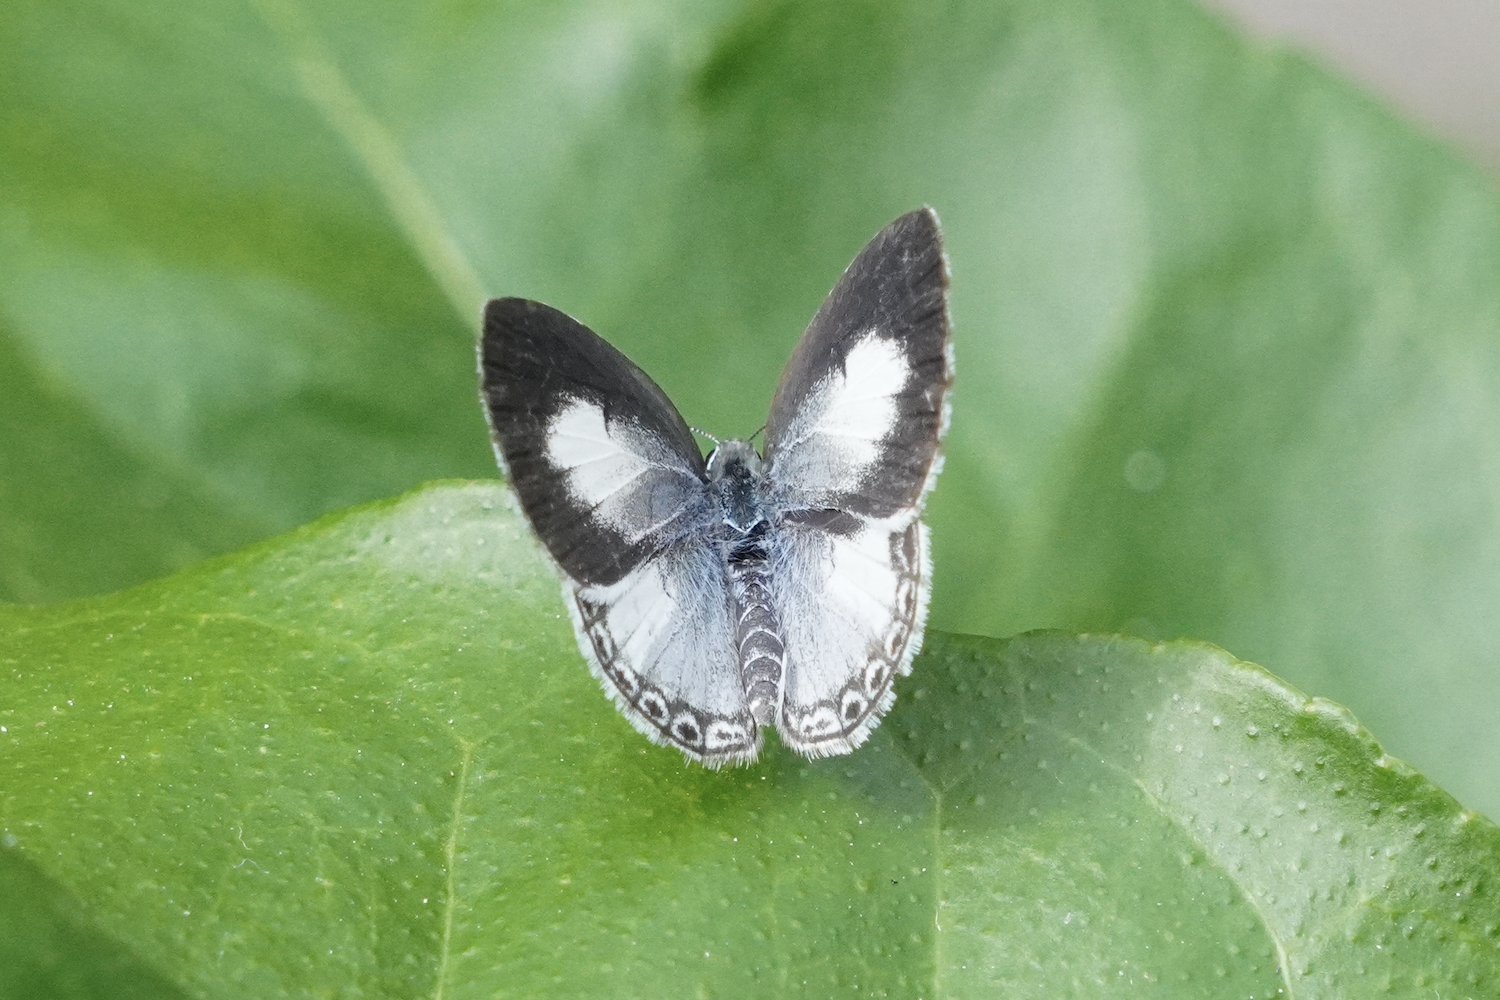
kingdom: Animalia
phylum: Arthropoda
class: Insecta
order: Lepidoptera
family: Lycaenidae
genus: Acytolepis
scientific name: Acytolepis puspa
